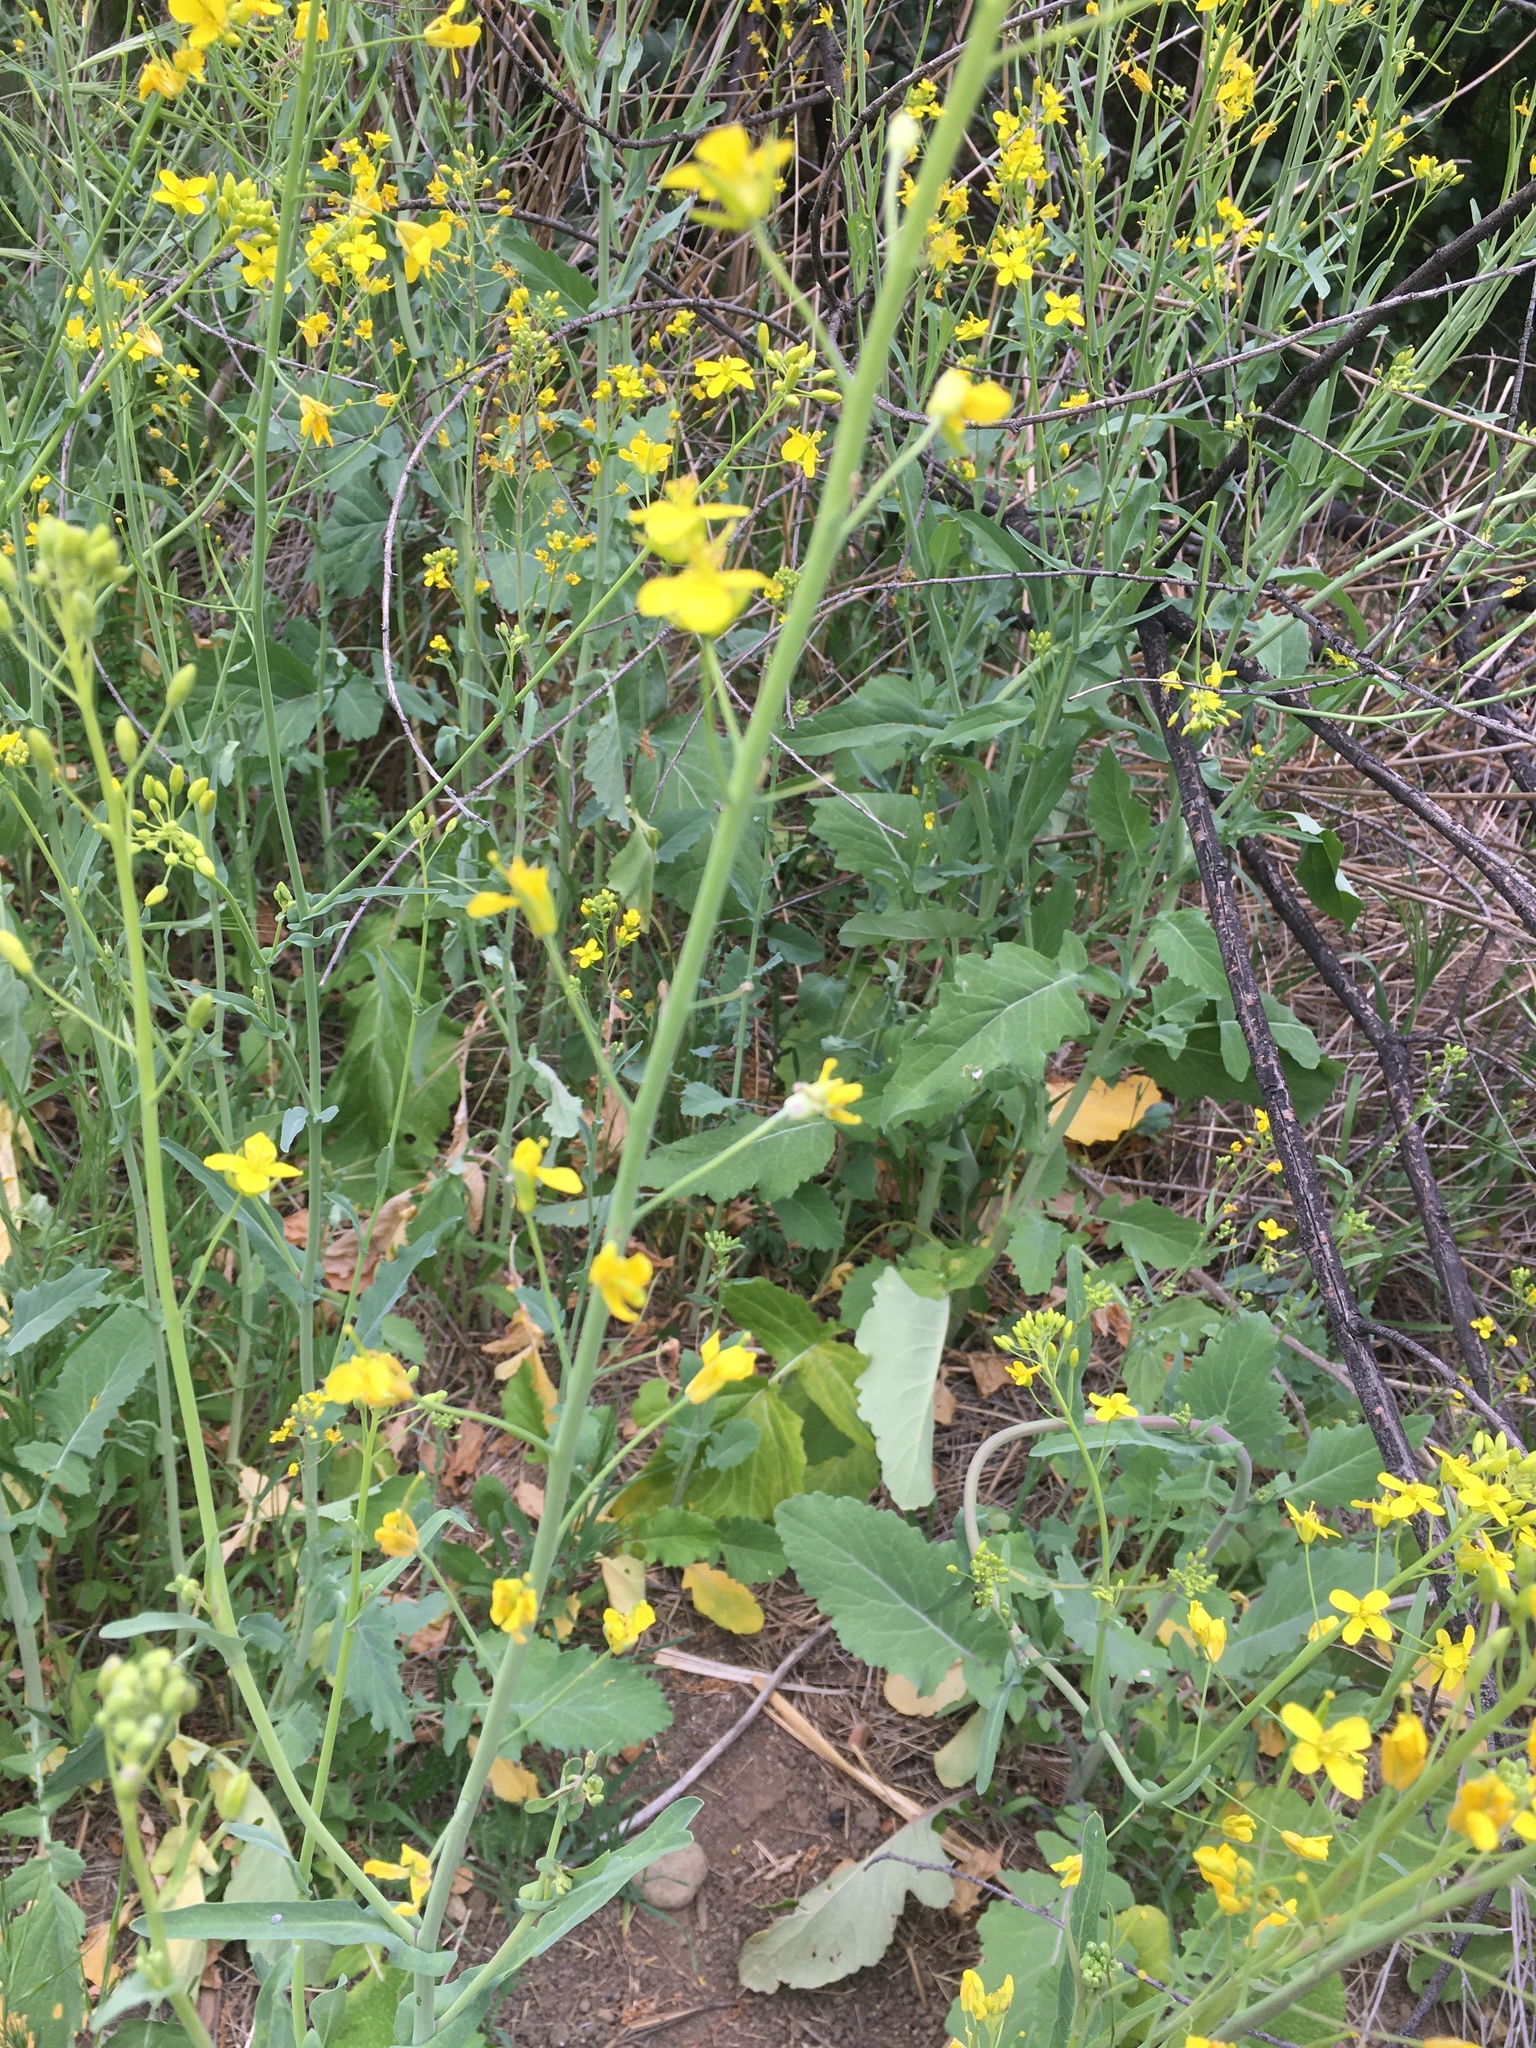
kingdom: Plantae
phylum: Tracheophyta
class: Magnoliopsida
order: Brassicales
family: Brassicaceae
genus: Brassica
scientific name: Brassica rapa
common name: Field mustard
